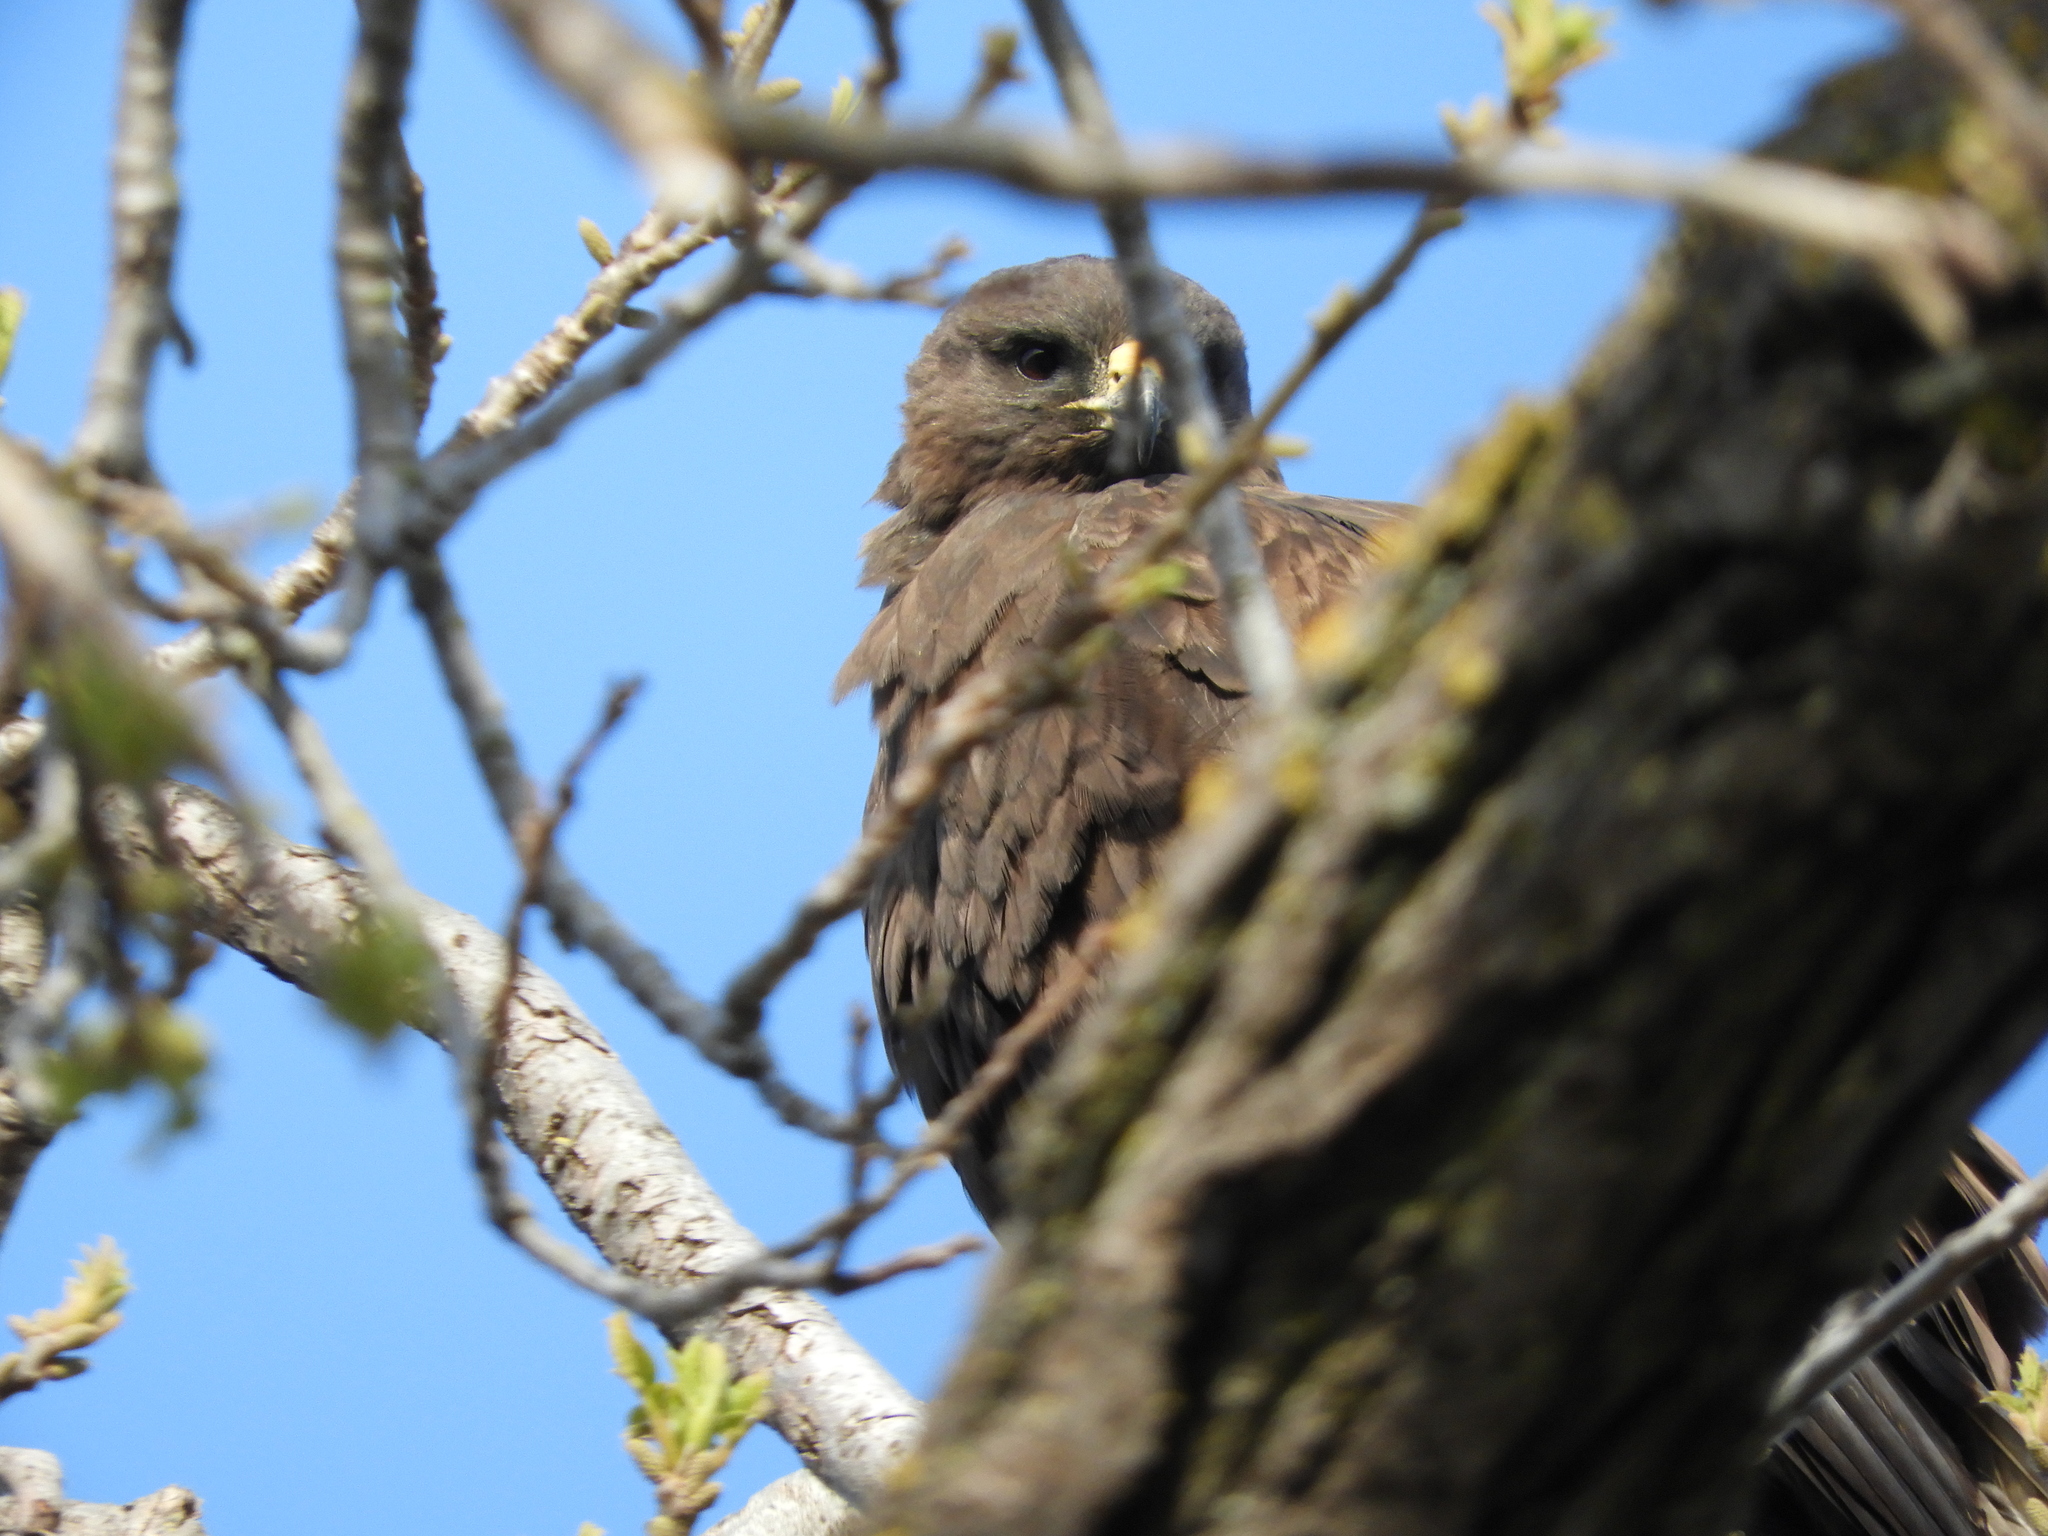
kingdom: Animalia
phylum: Chordata
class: Aves
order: Accipitriformes
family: Accipitridae
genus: Buteo
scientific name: Buteo swainsoni
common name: Swainson's hawk
